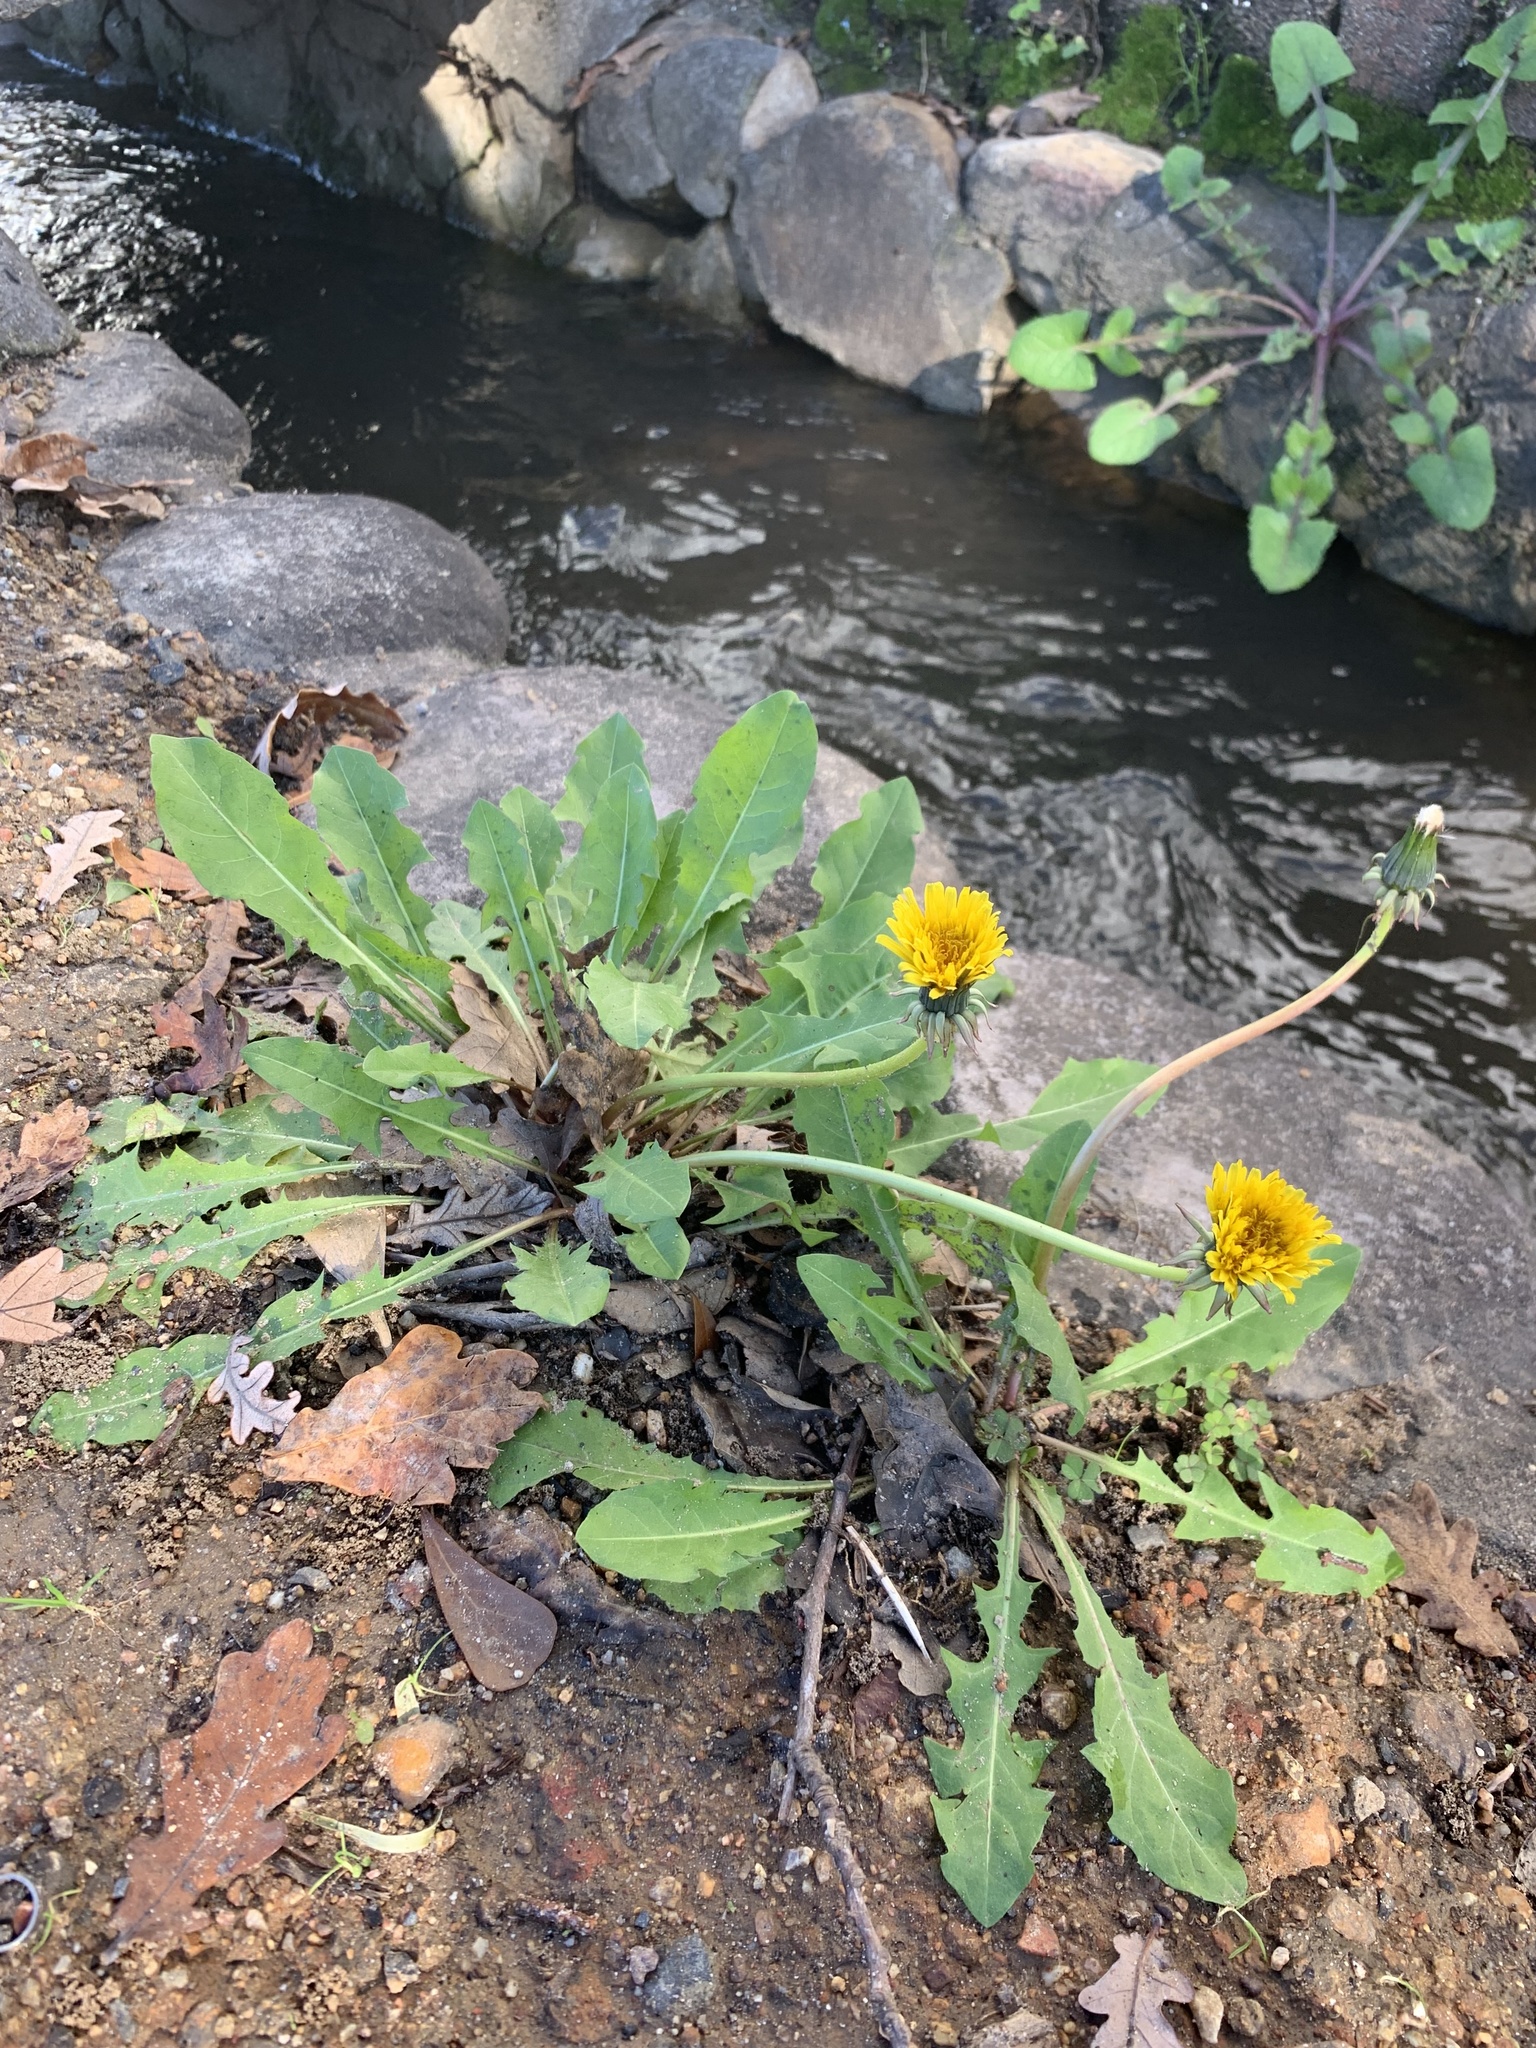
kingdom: Plantae
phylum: Tracheophyta
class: Magnoliopsida
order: Asterales
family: Asteraceae
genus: Taraxacum
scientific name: Taraxacum officinale
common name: Common dandelion
